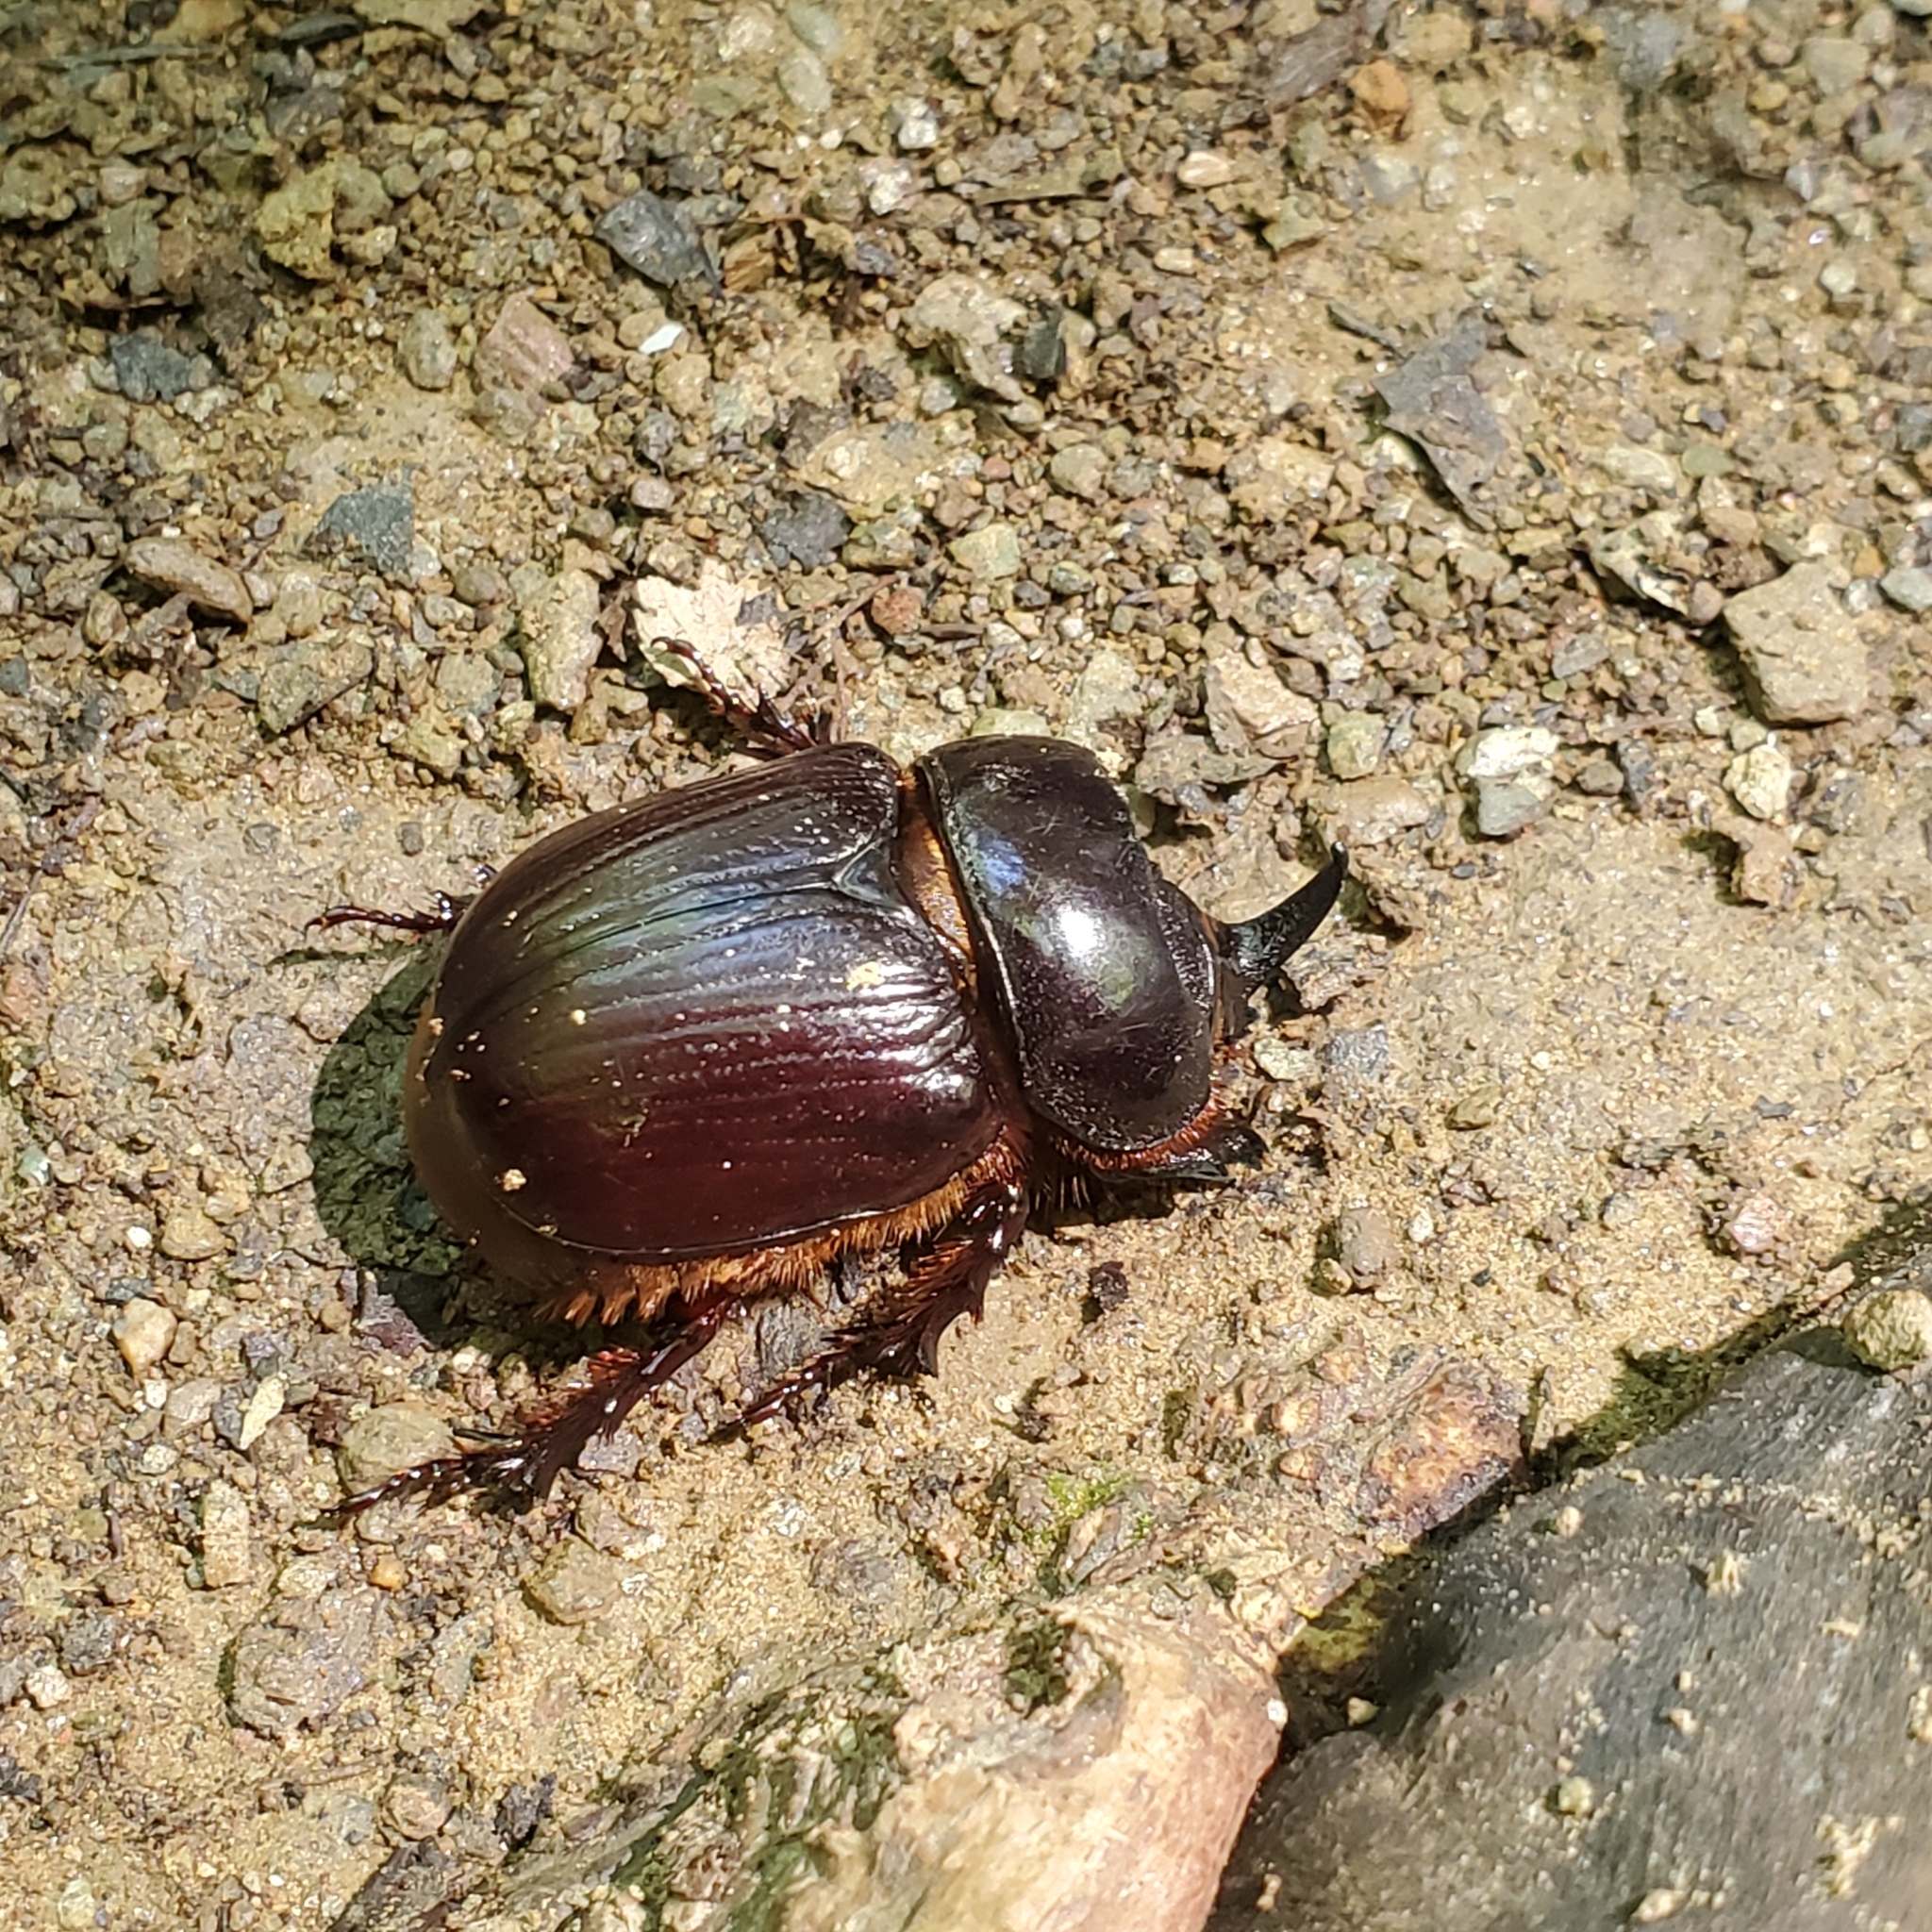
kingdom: Animalia
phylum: Arthropoda
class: Insecta
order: Coleoptera
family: Scarabaeidae
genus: Xyloryctes
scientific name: Xyloryctes jamaicensis
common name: Eastern rhinoceros beetle
